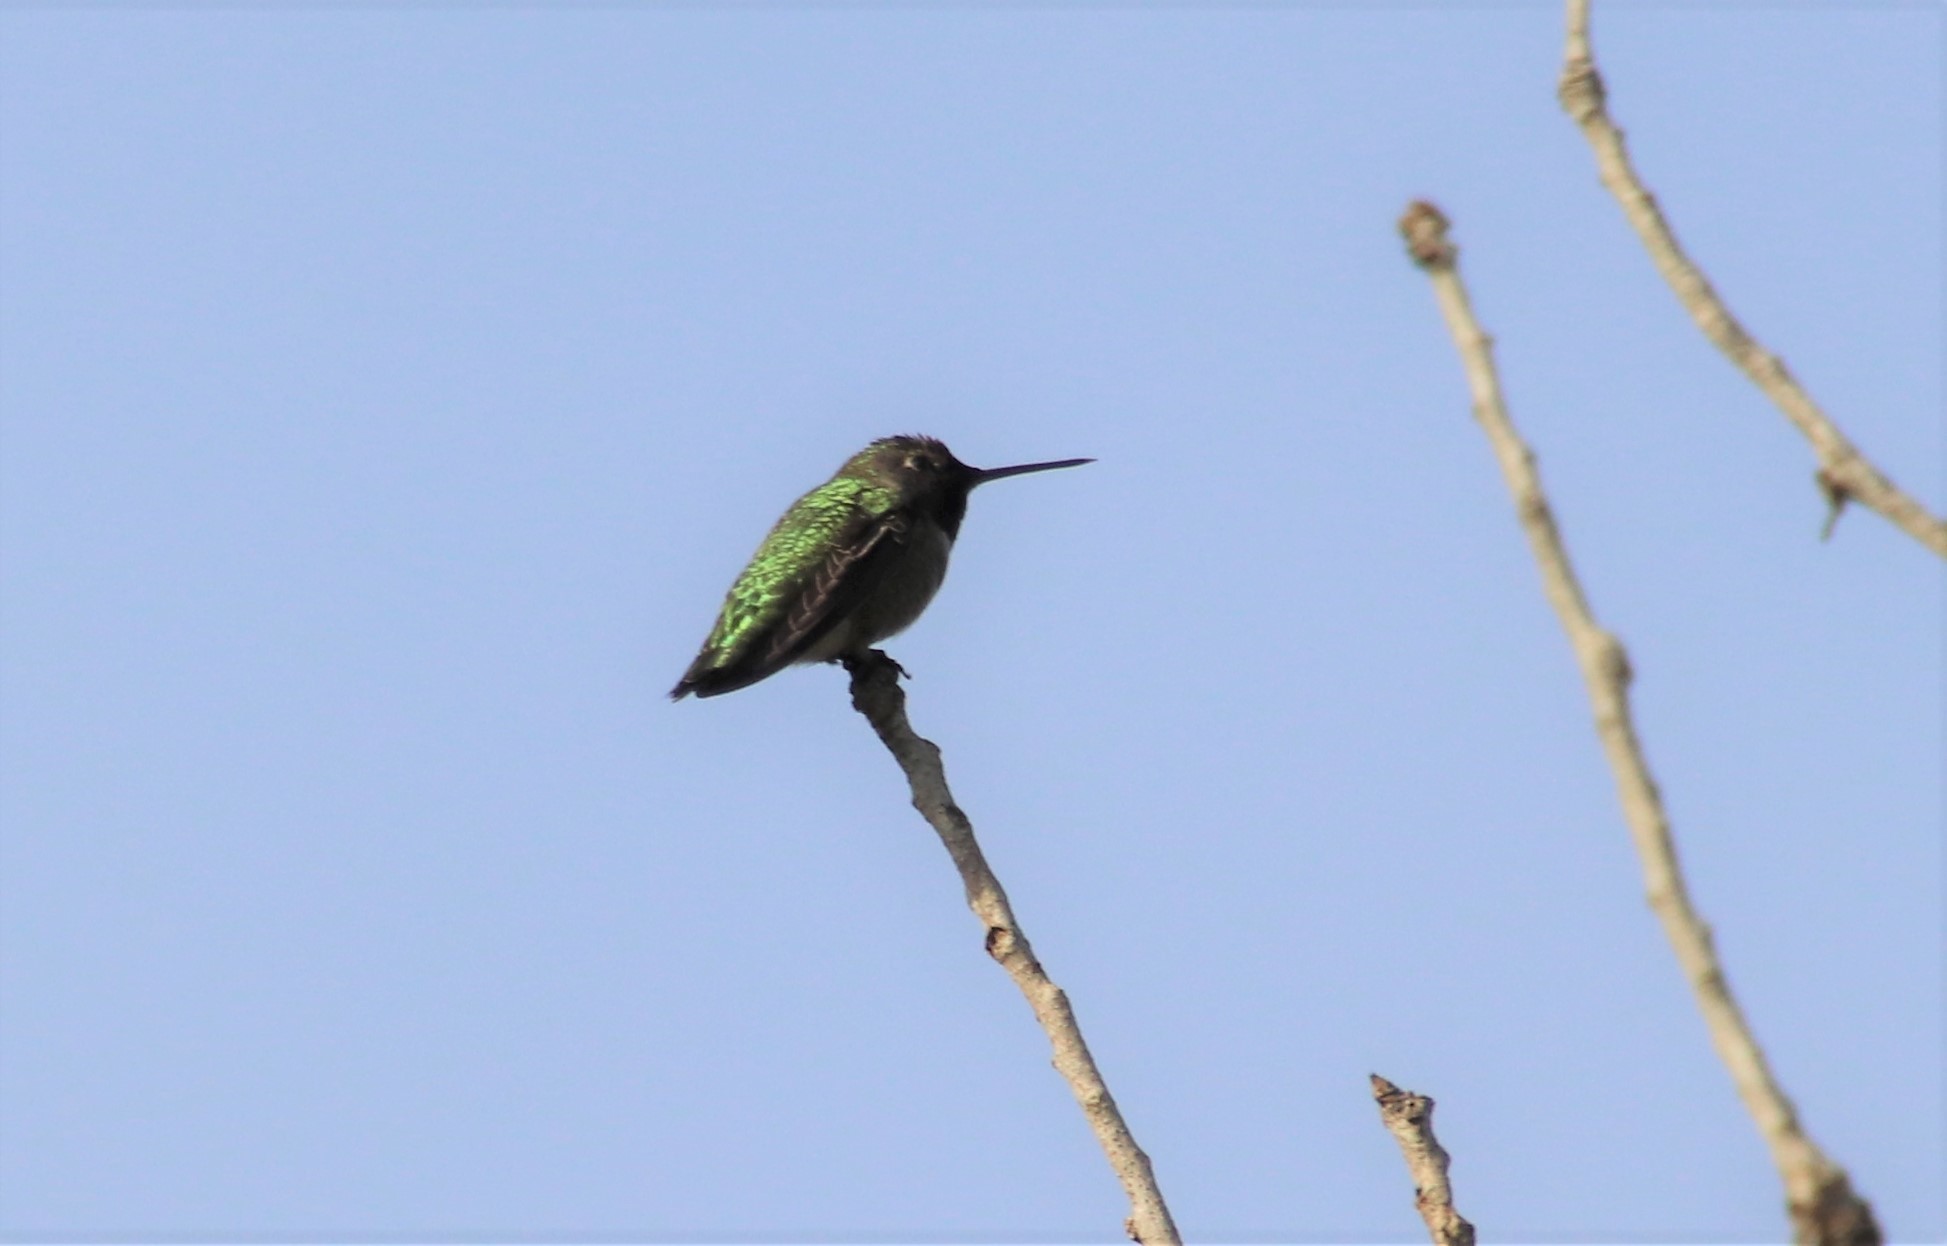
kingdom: Animalia
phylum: Chordata
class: Aves
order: Apodiformes
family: Trochilidae
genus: Calypte
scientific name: Calypte anna
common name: Anna's hummingbird
